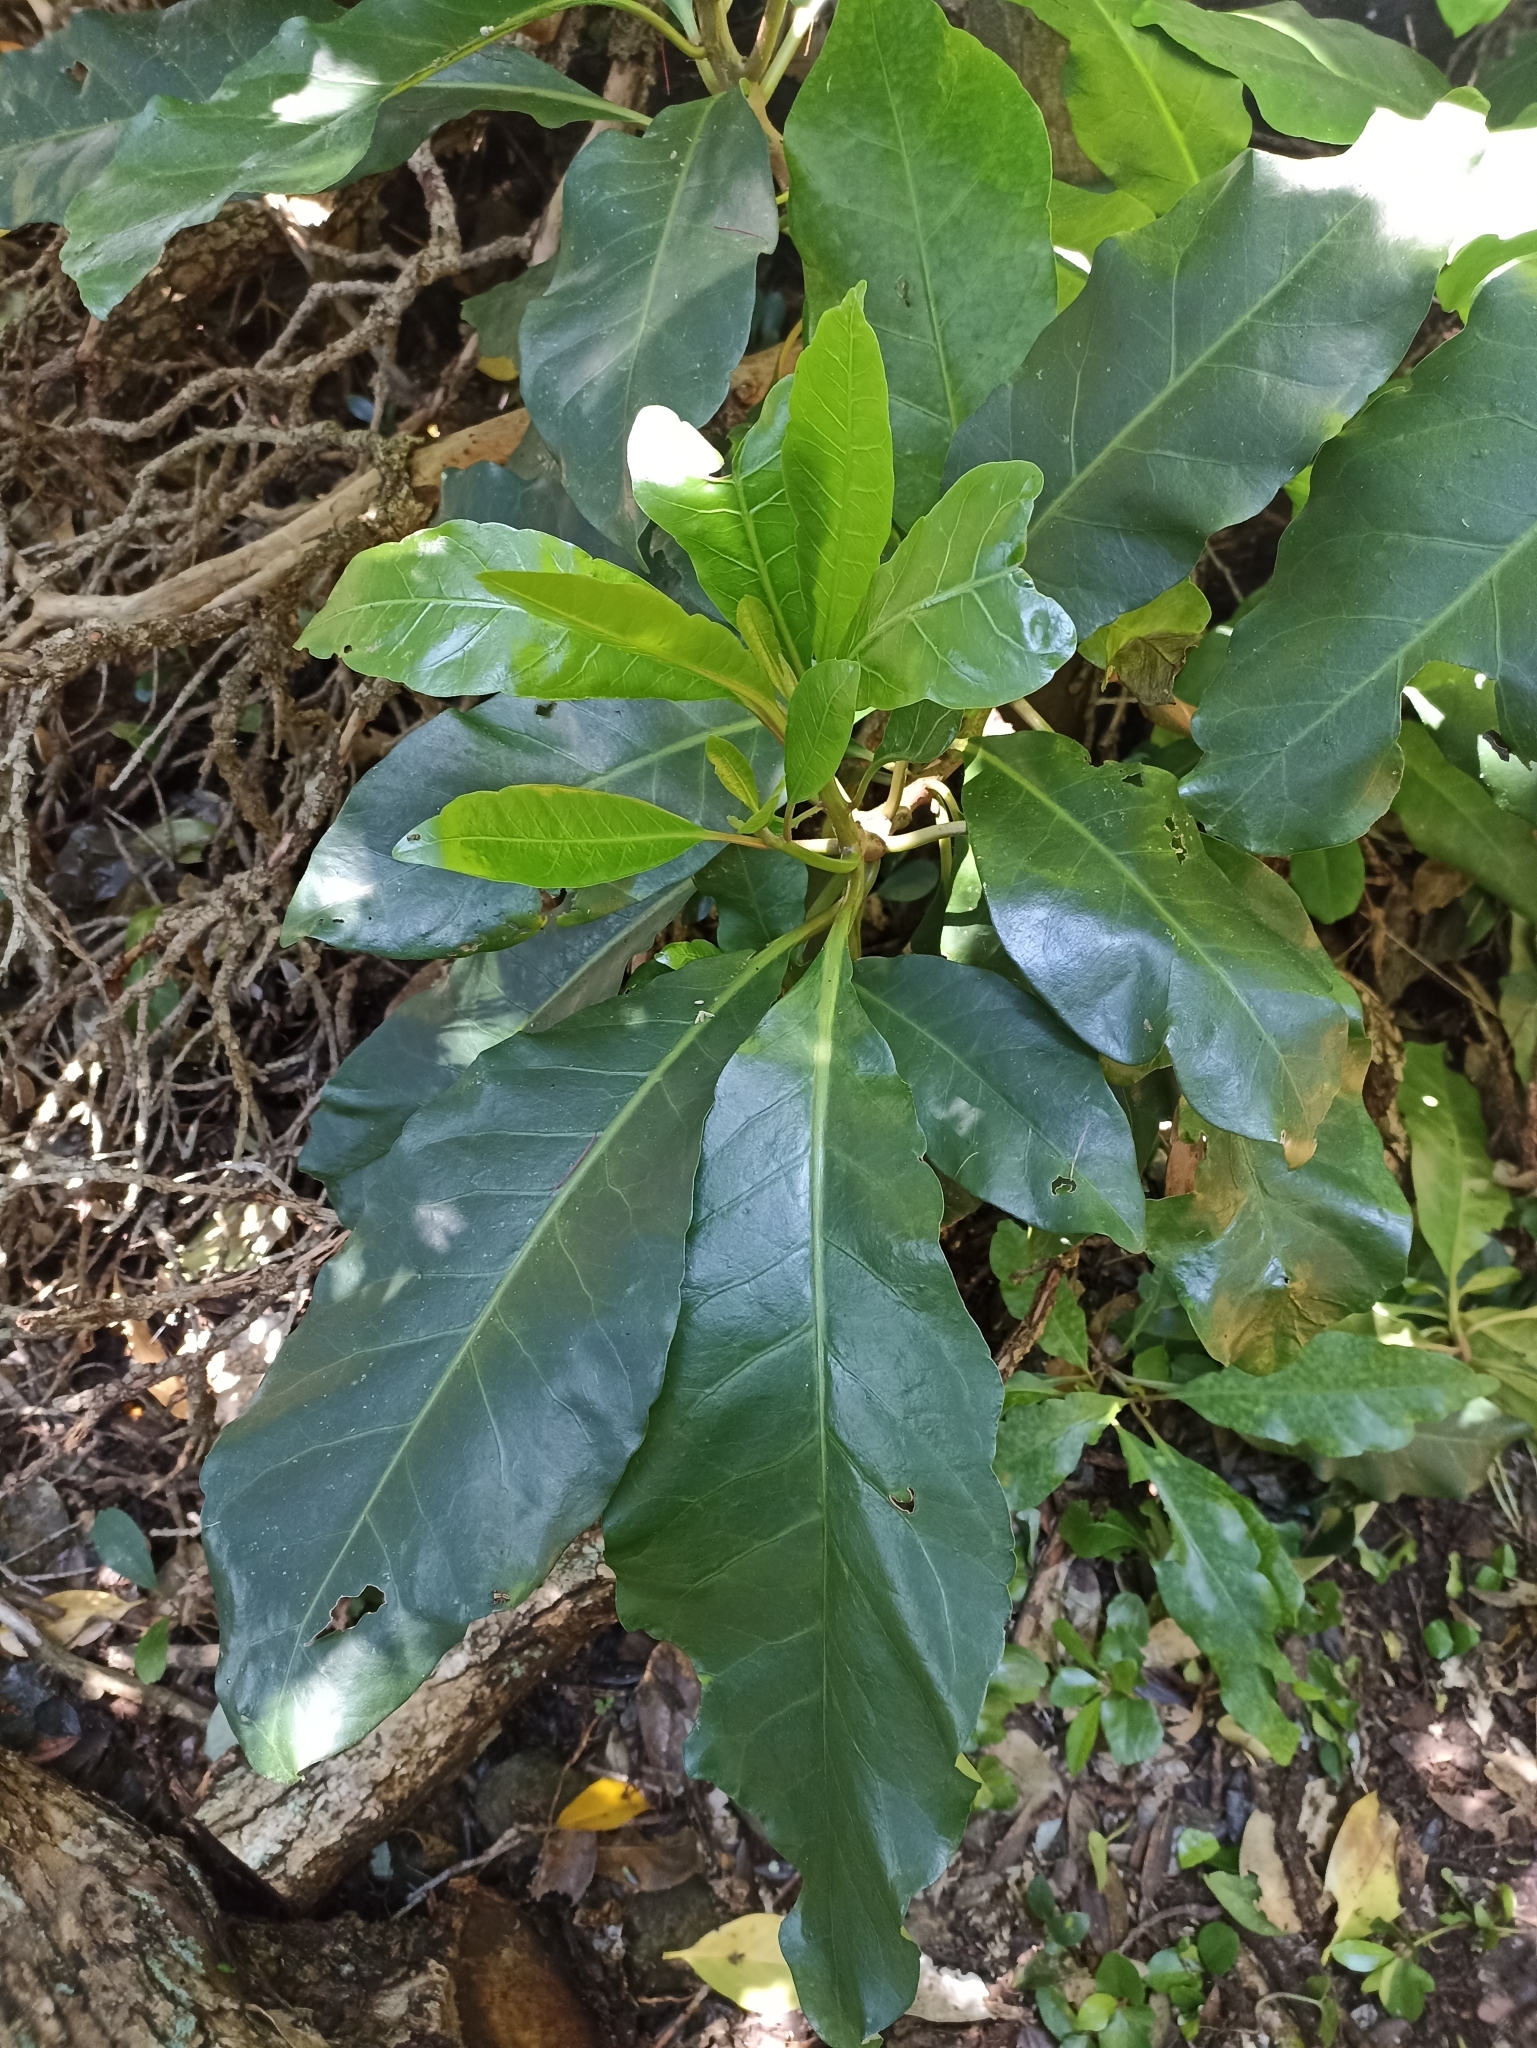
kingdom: Plantae
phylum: Tracheophyta
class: Magnoliopsida
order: Caryophyllales
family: Nyctaginaceae
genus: Ceodes
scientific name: Ceodes brunoniana
